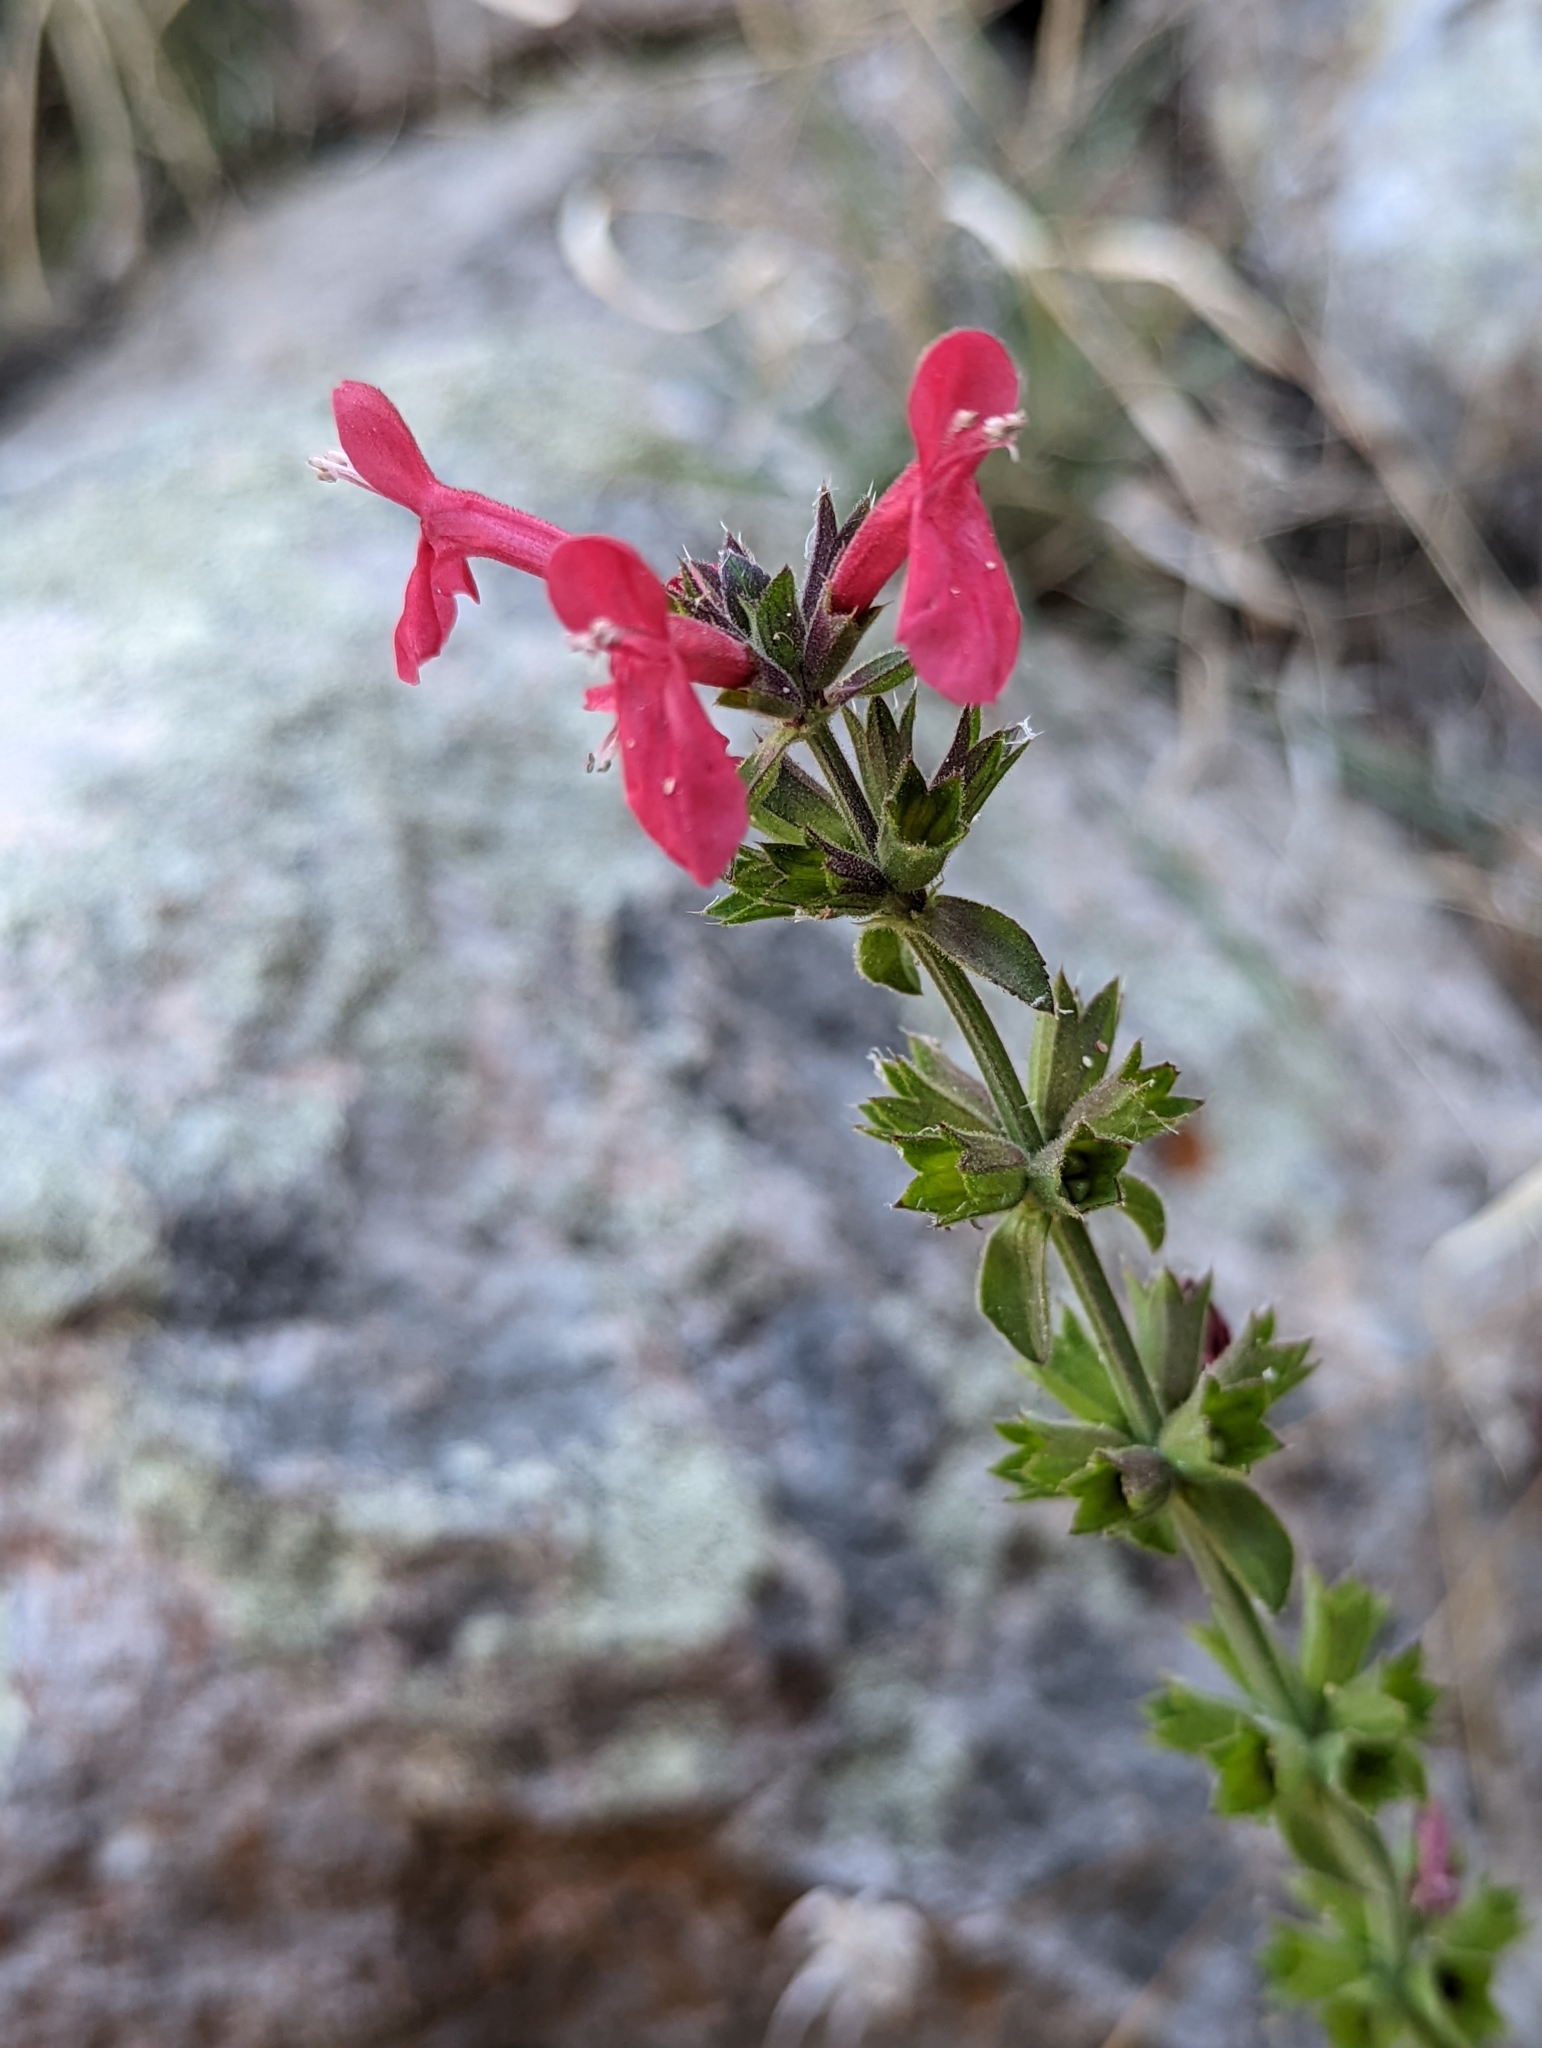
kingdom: Plantae
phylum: Tracheophyta
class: Magnoliopsida
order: Lamiales
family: Lamiaceae
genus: Stachys
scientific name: Stachys coccinea
